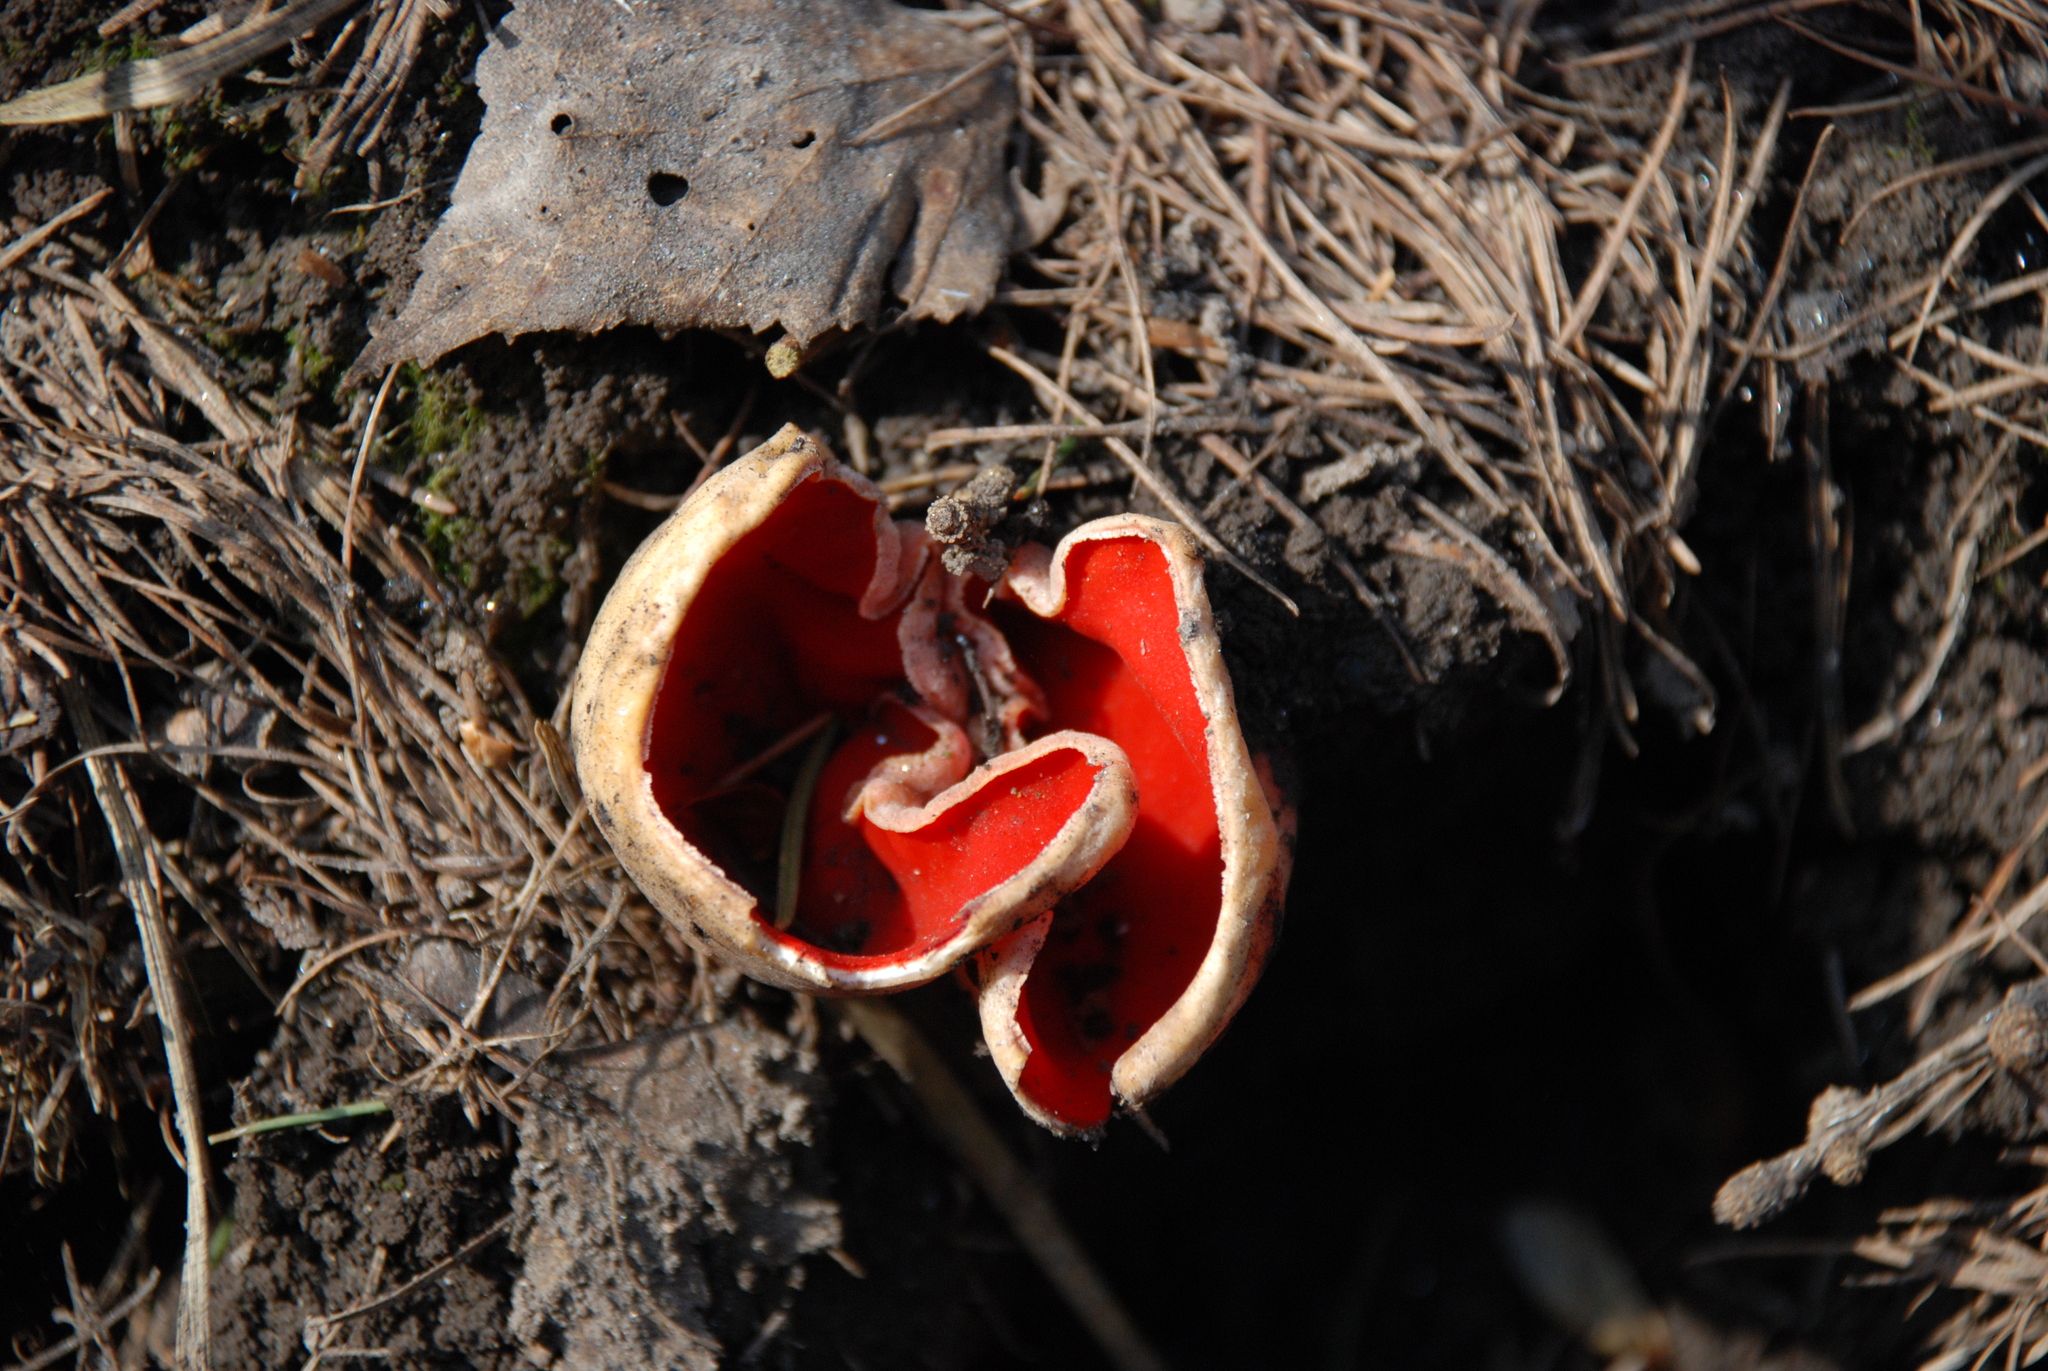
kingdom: Fungi
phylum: Ascomycota
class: Pezizomycetes
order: Pezizales
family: Sarcoscyphaceae
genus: Sarcoscypha
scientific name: Sarcoscypha austriaca
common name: Scarlet elfcup
